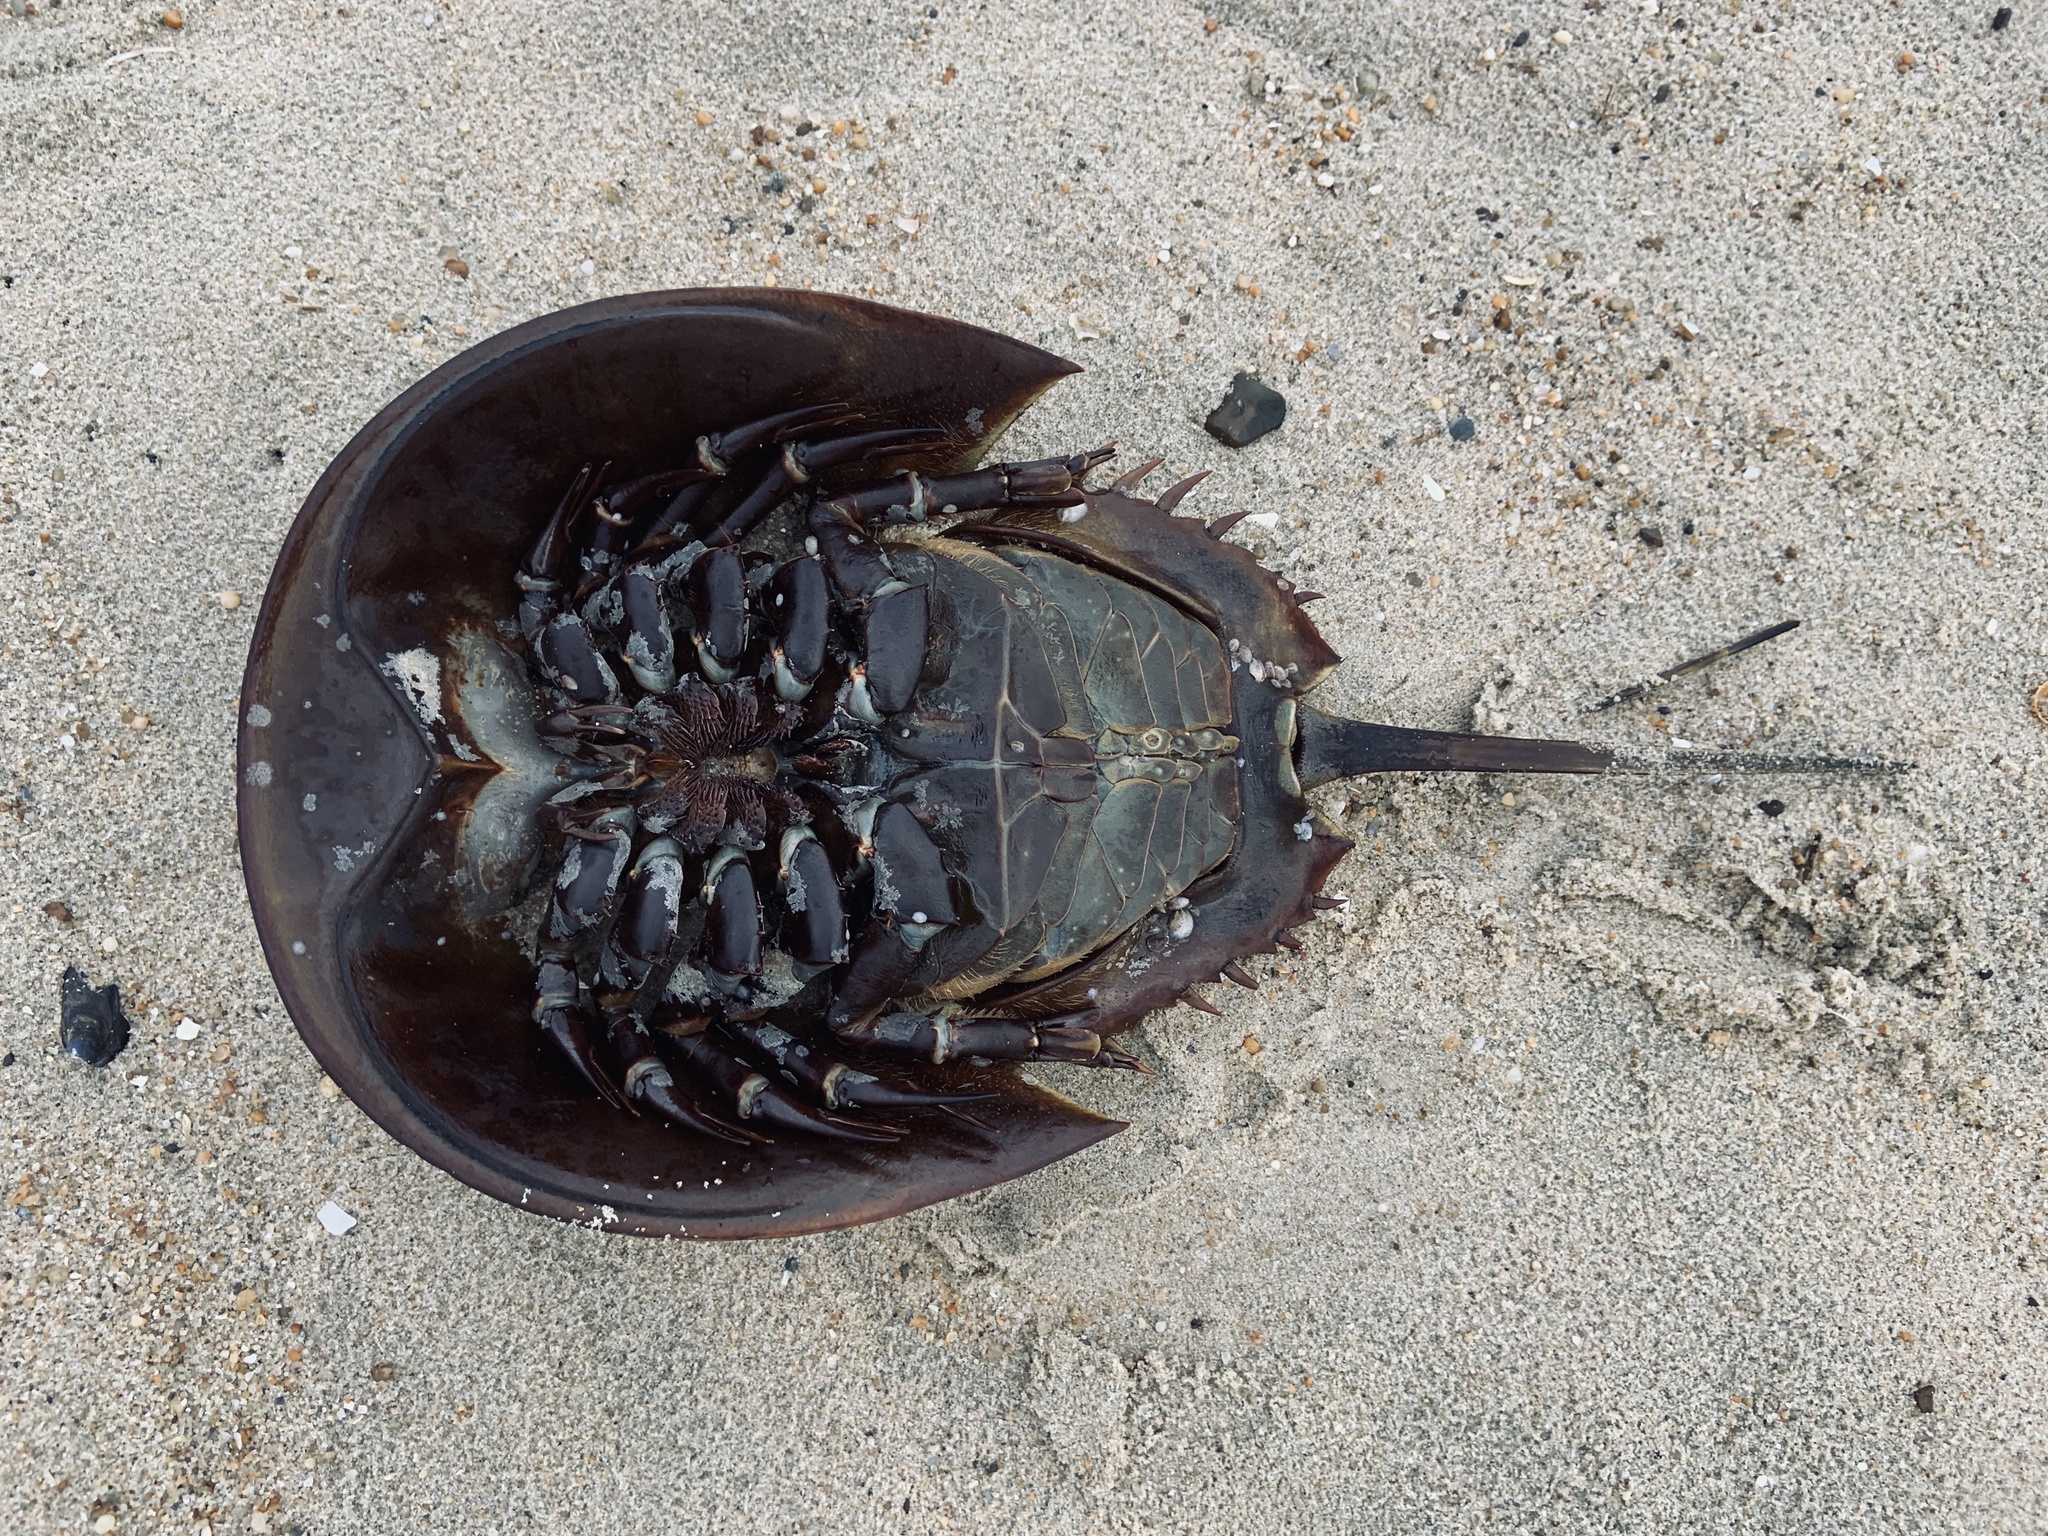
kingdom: Animalia
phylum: Arthropoda
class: Merostomata
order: Xiphosurida
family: Limulidae
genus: Limulus
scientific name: Limulus polyphemus
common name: Horseshoe crab
